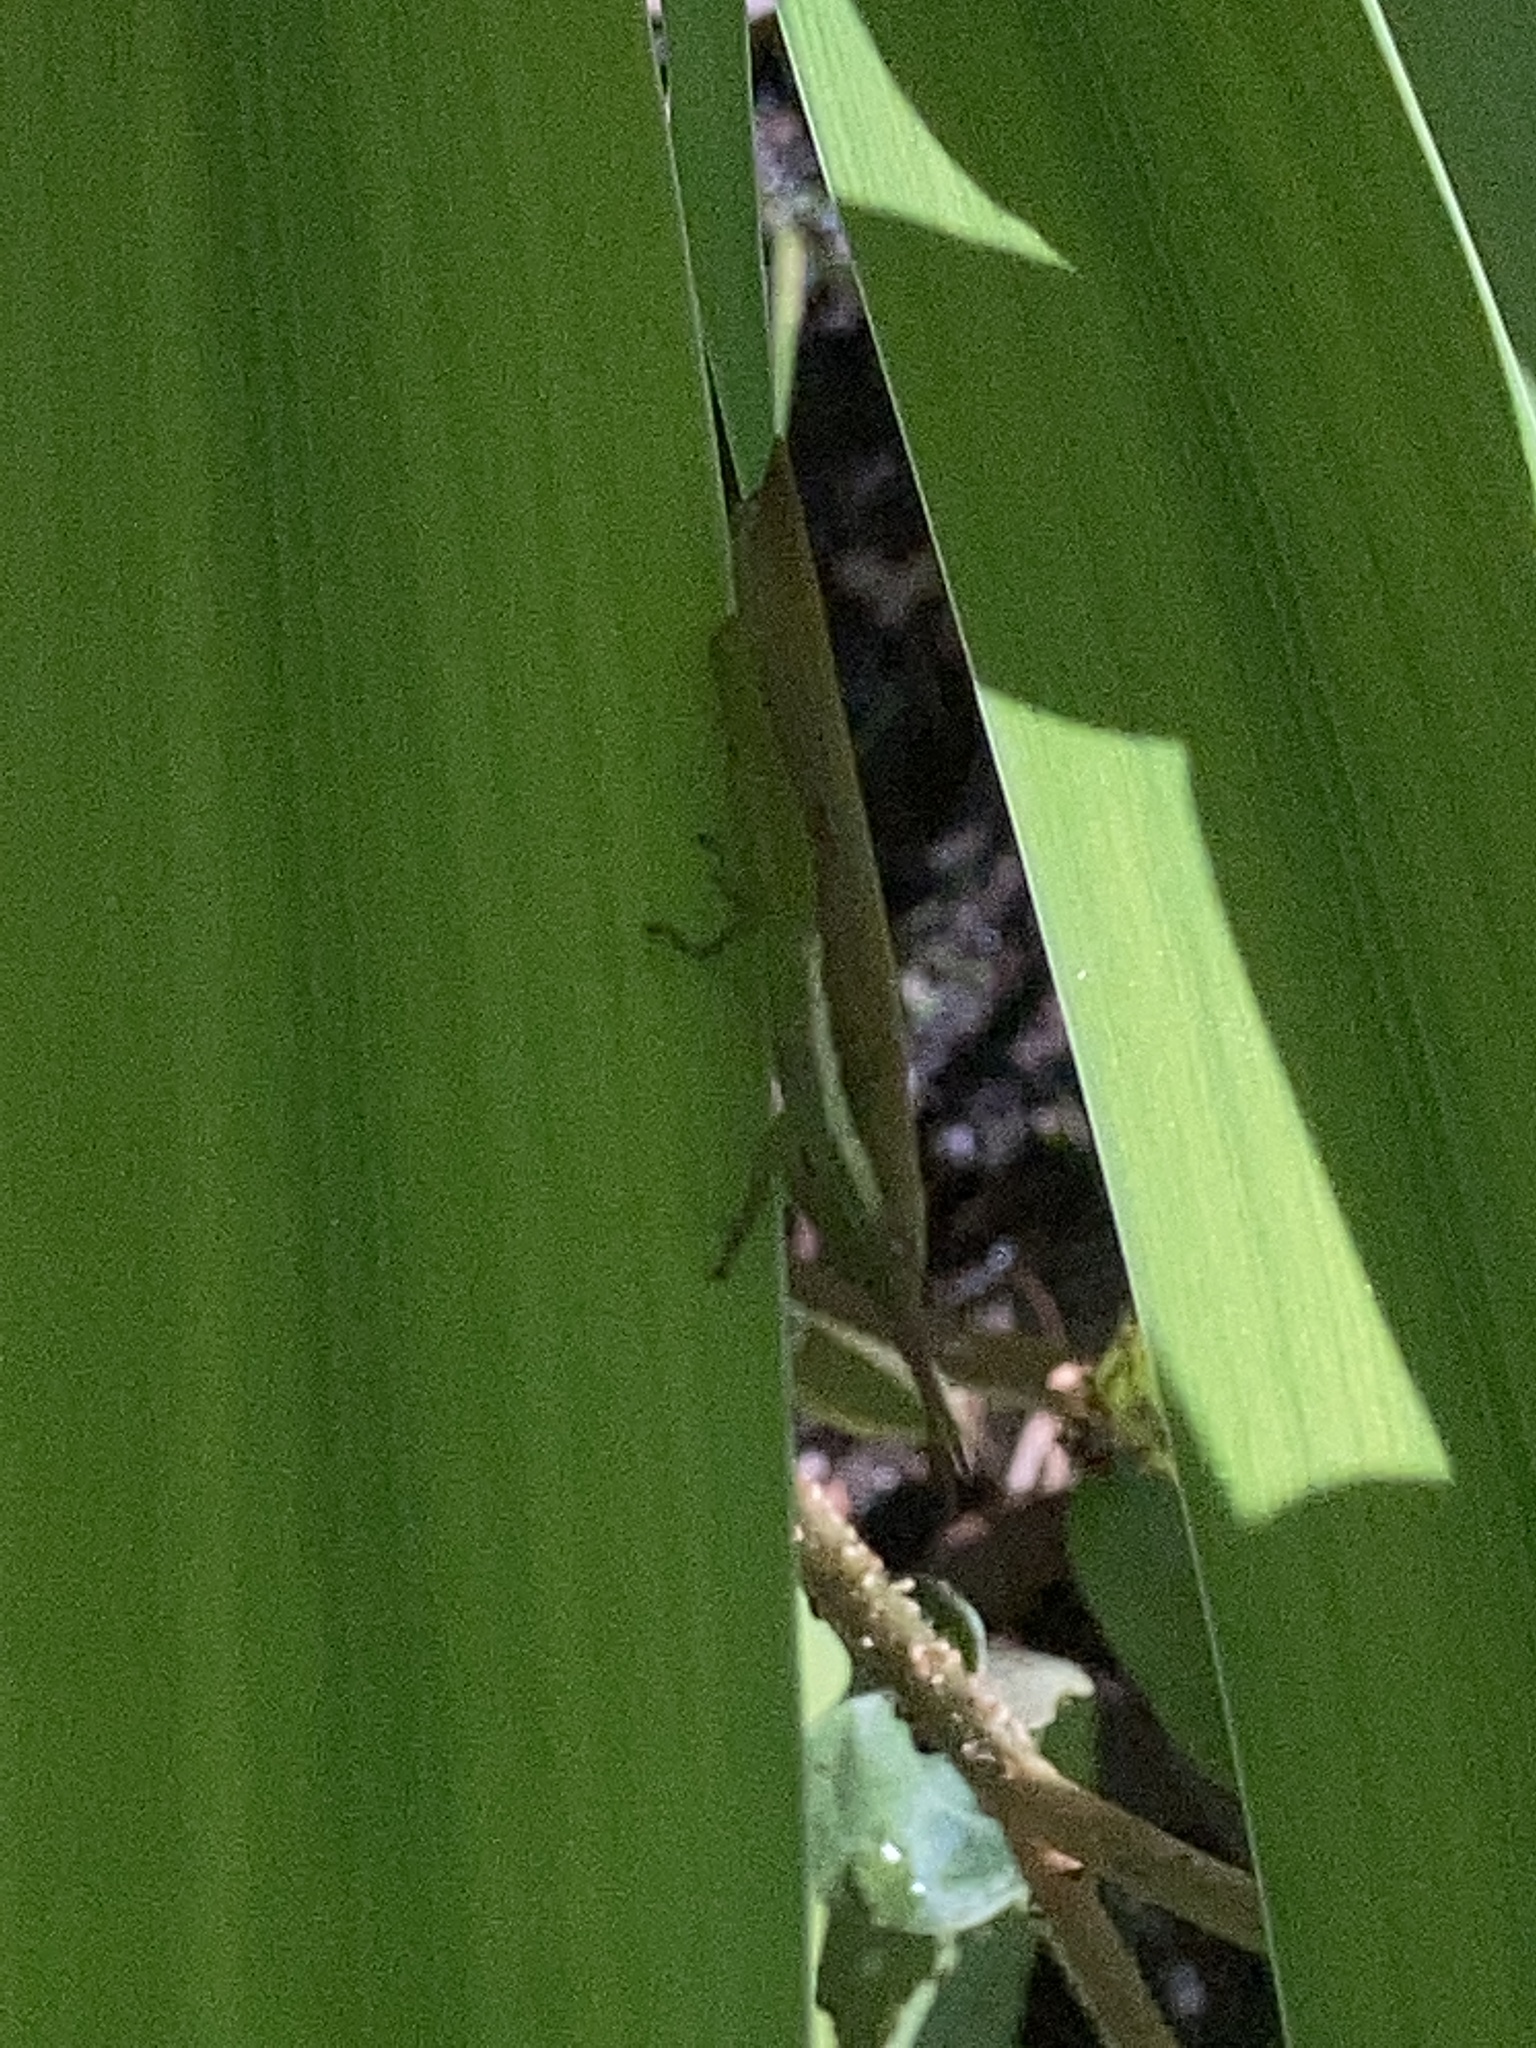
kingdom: Animalia
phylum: Arthropoda
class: Insecta
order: Orthoptera
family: Acrididae
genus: Leptysma
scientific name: Leptysma marginicollis
